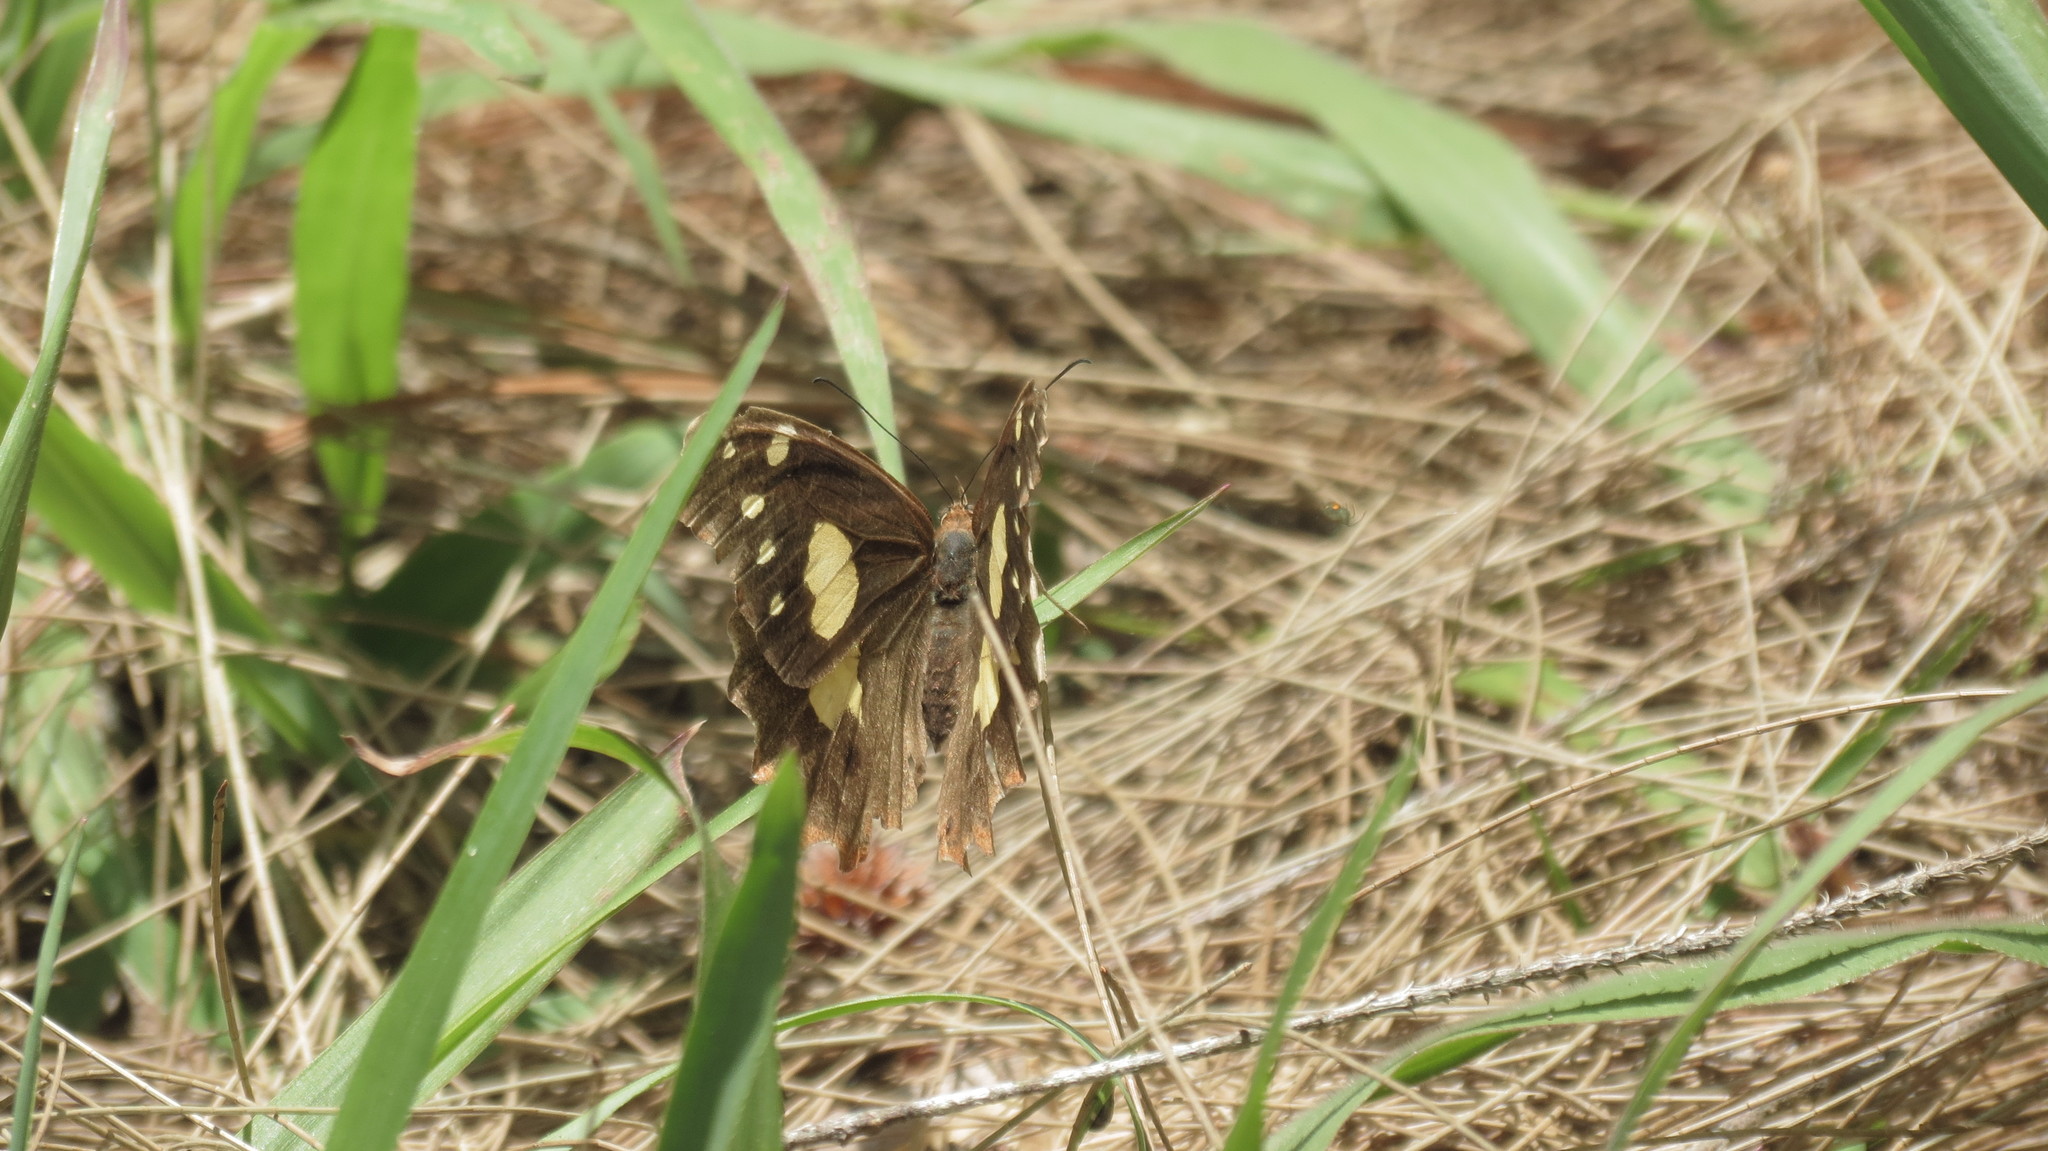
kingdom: Animalia
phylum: Arthropoda
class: Insecta
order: Lepidoptera
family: Nymphalidae
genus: Oxeoschistus
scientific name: Oxeoschistus tauropolis
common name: Starred oxeo
